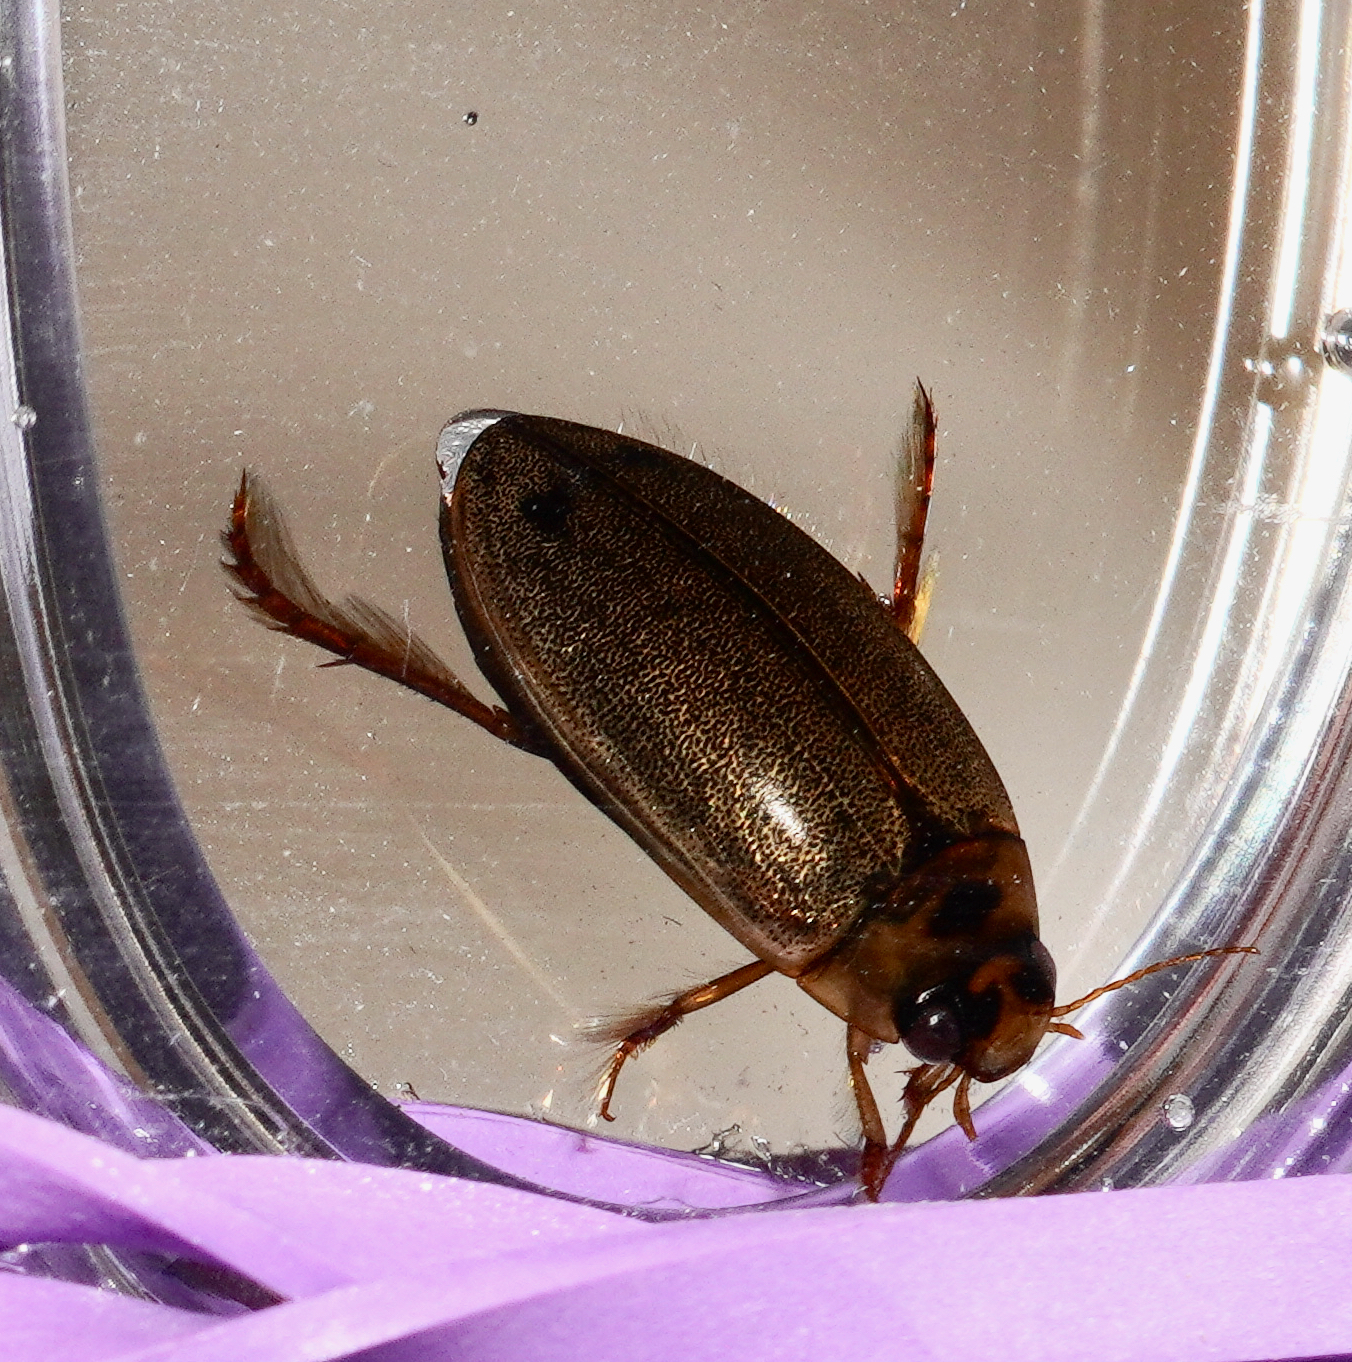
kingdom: Animalia
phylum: Arthropoda
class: Insecta
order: Coleoptera
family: Dytiscidae
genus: Rhantus
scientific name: Rhantus suturalis
